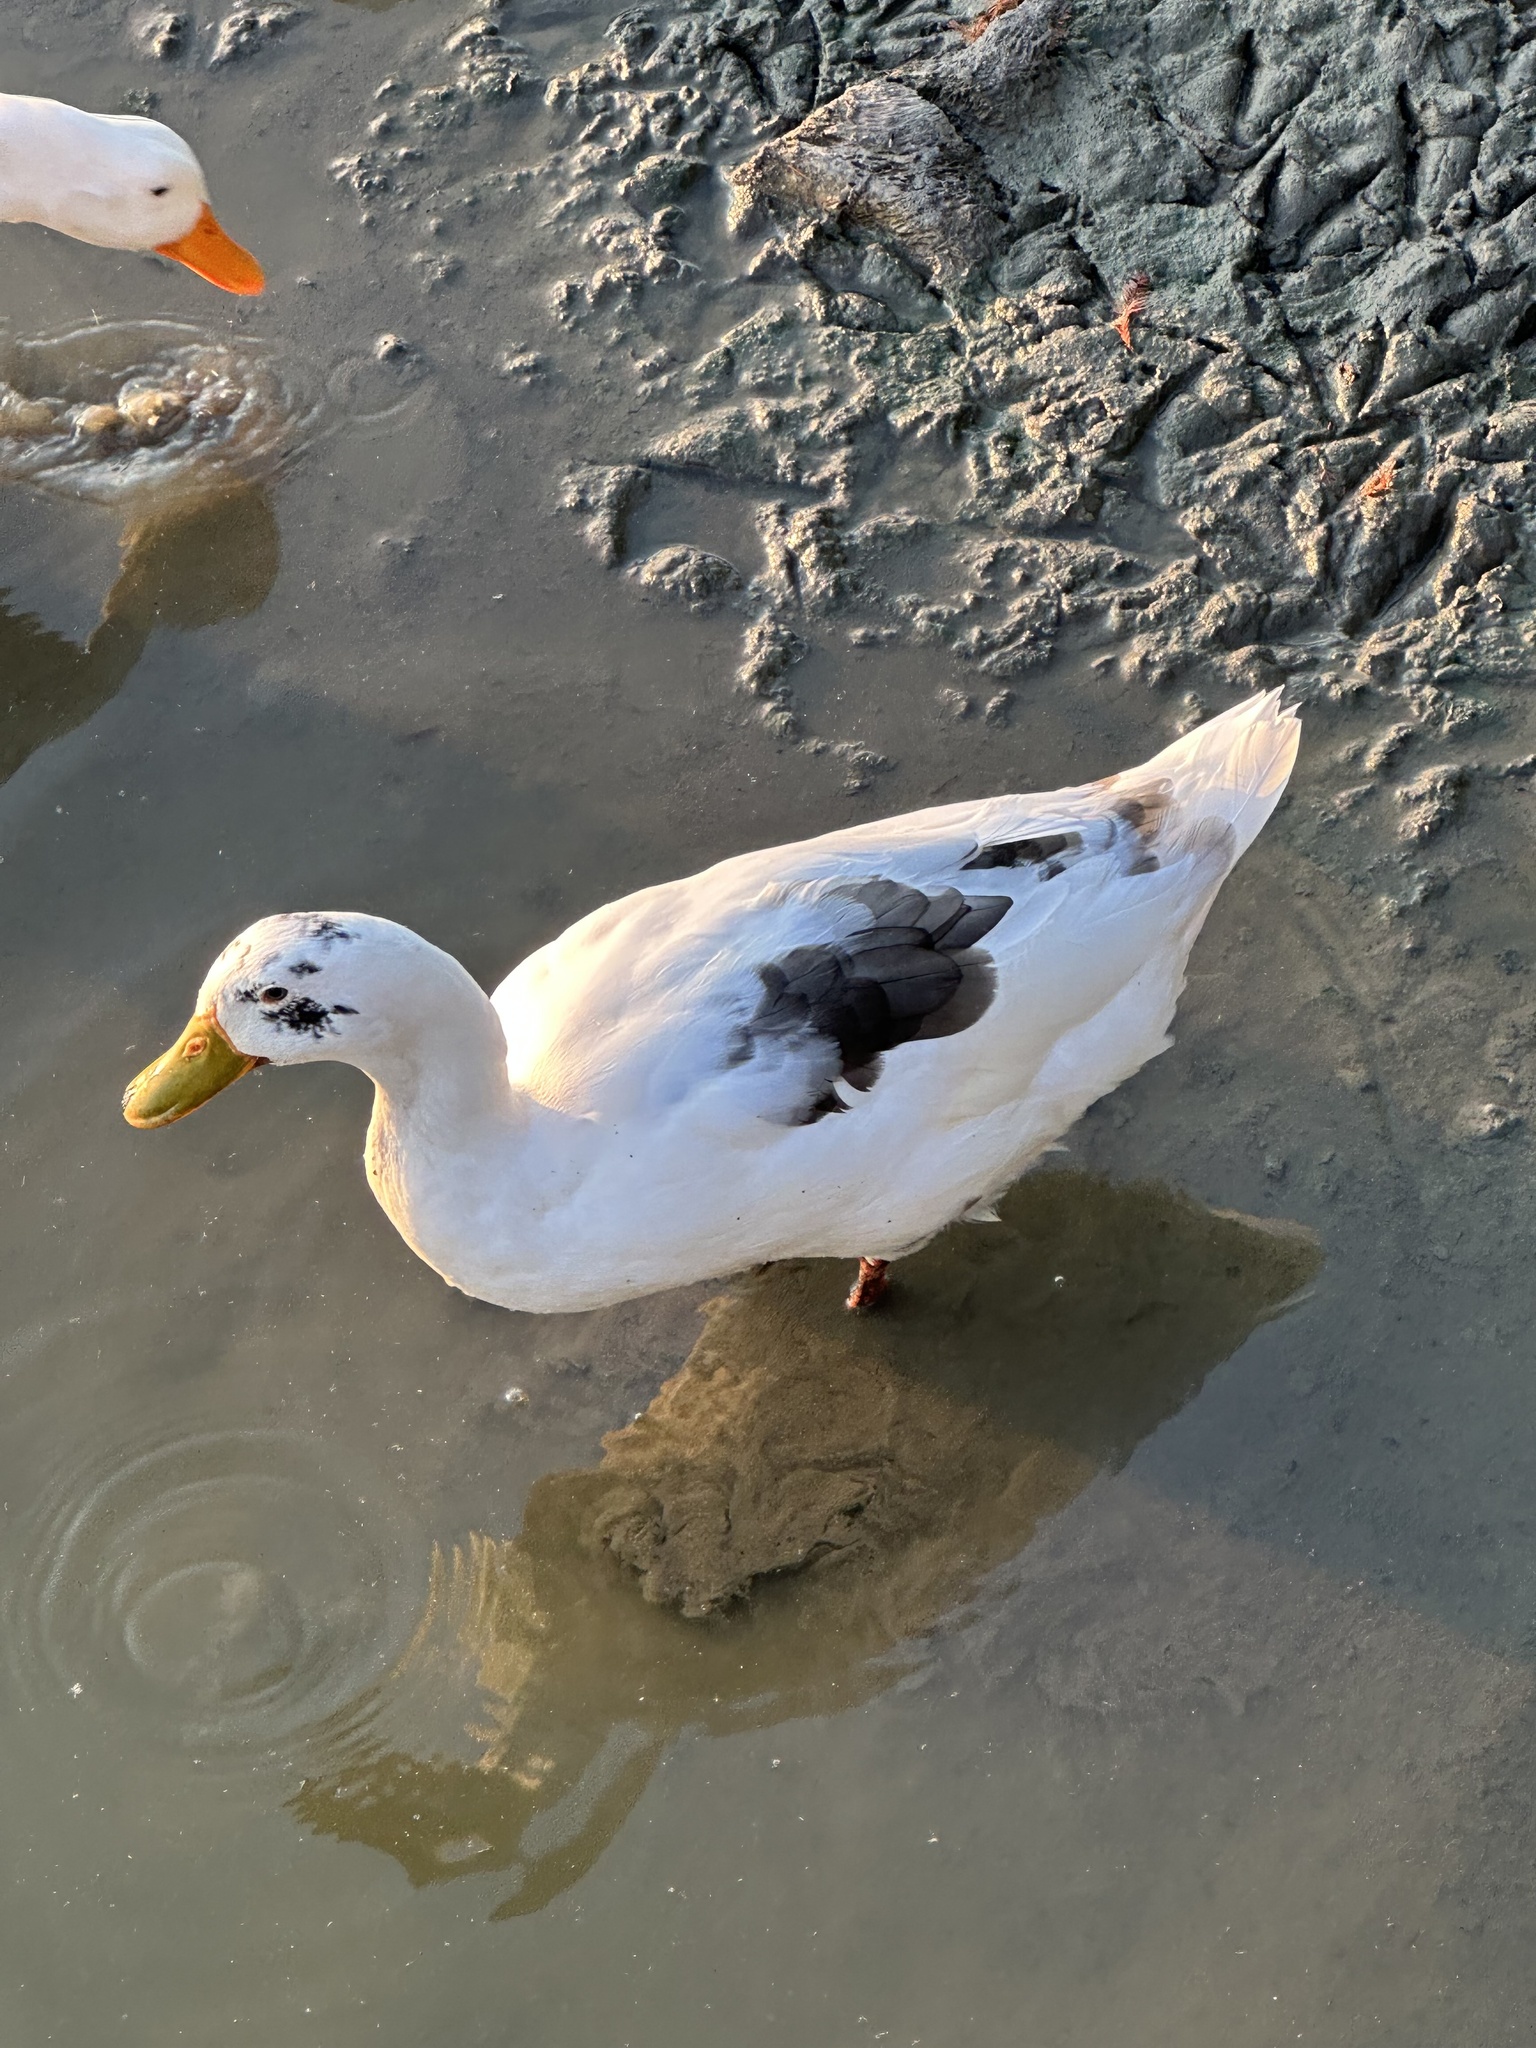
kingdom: Animalia
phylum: Chordata
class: Aves
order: Anseriformes
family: Anatidae
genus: Anas
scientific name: Anas platyrhynchos
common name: Mallard
